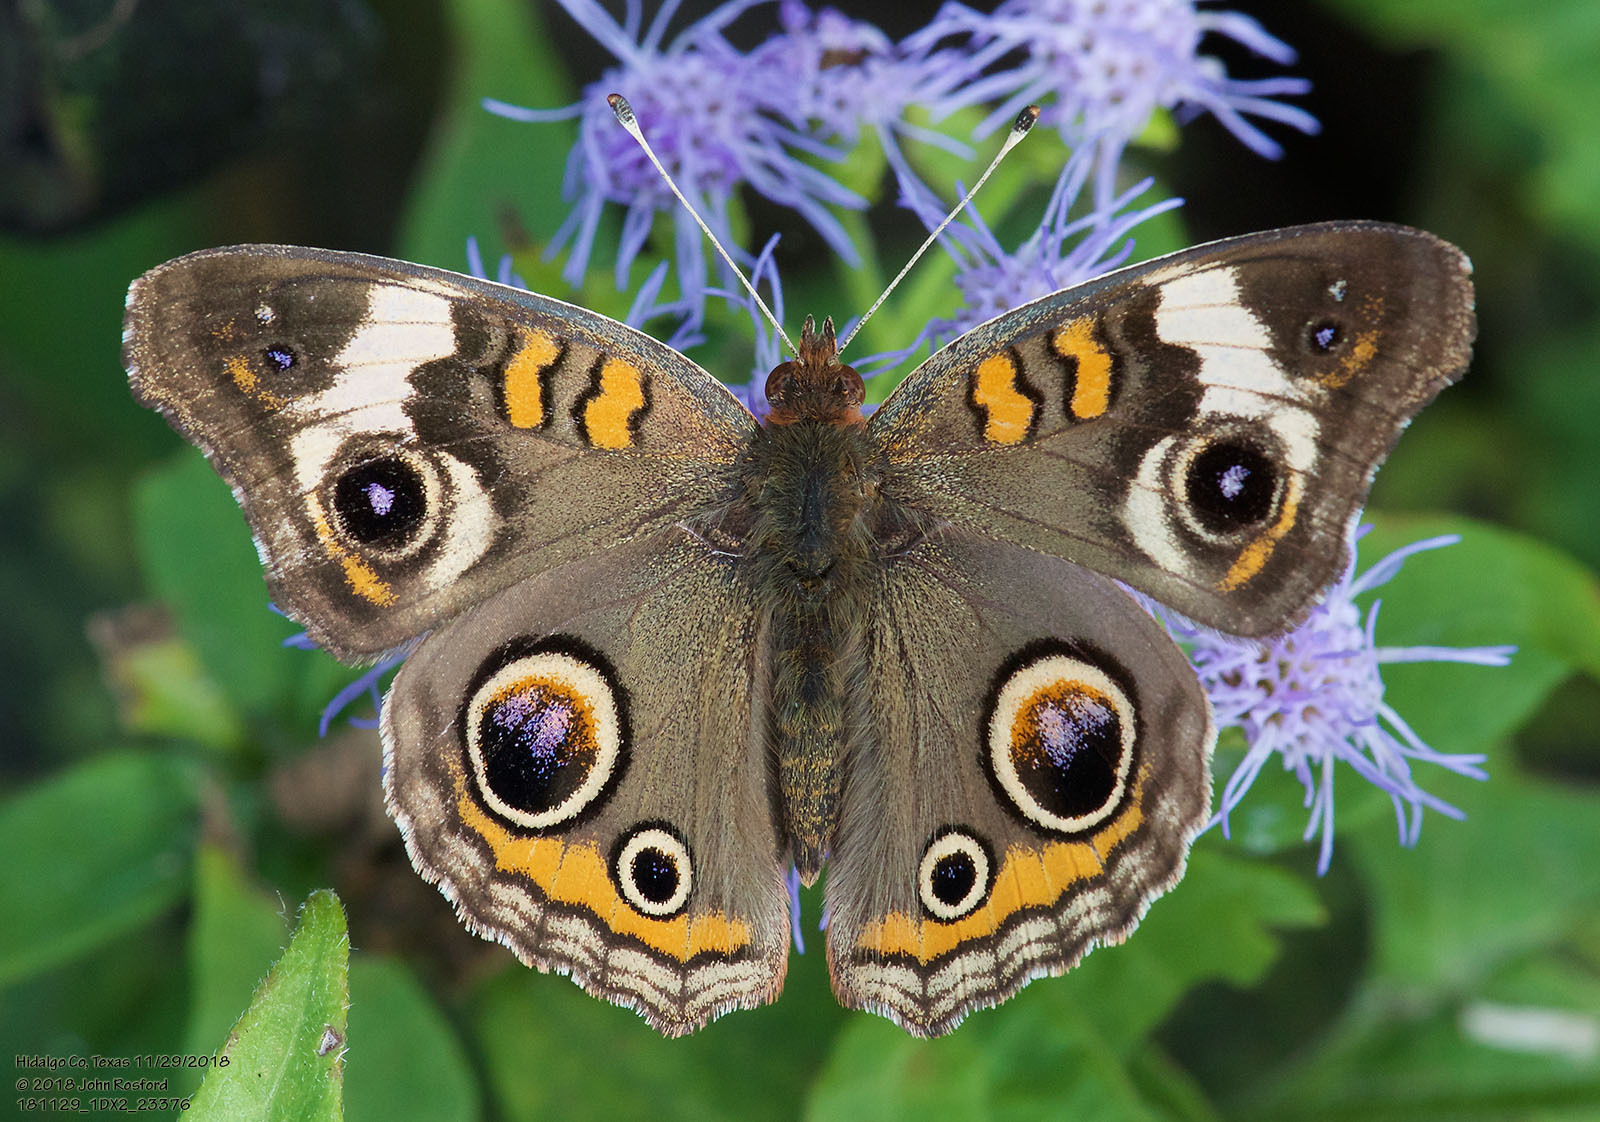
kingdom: Animalia
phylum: Arthropoda
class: Insecta
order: Lepidoptera
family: Nymphalidae
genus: Junonia
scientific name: Junonia coenia
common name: Common buckeye
